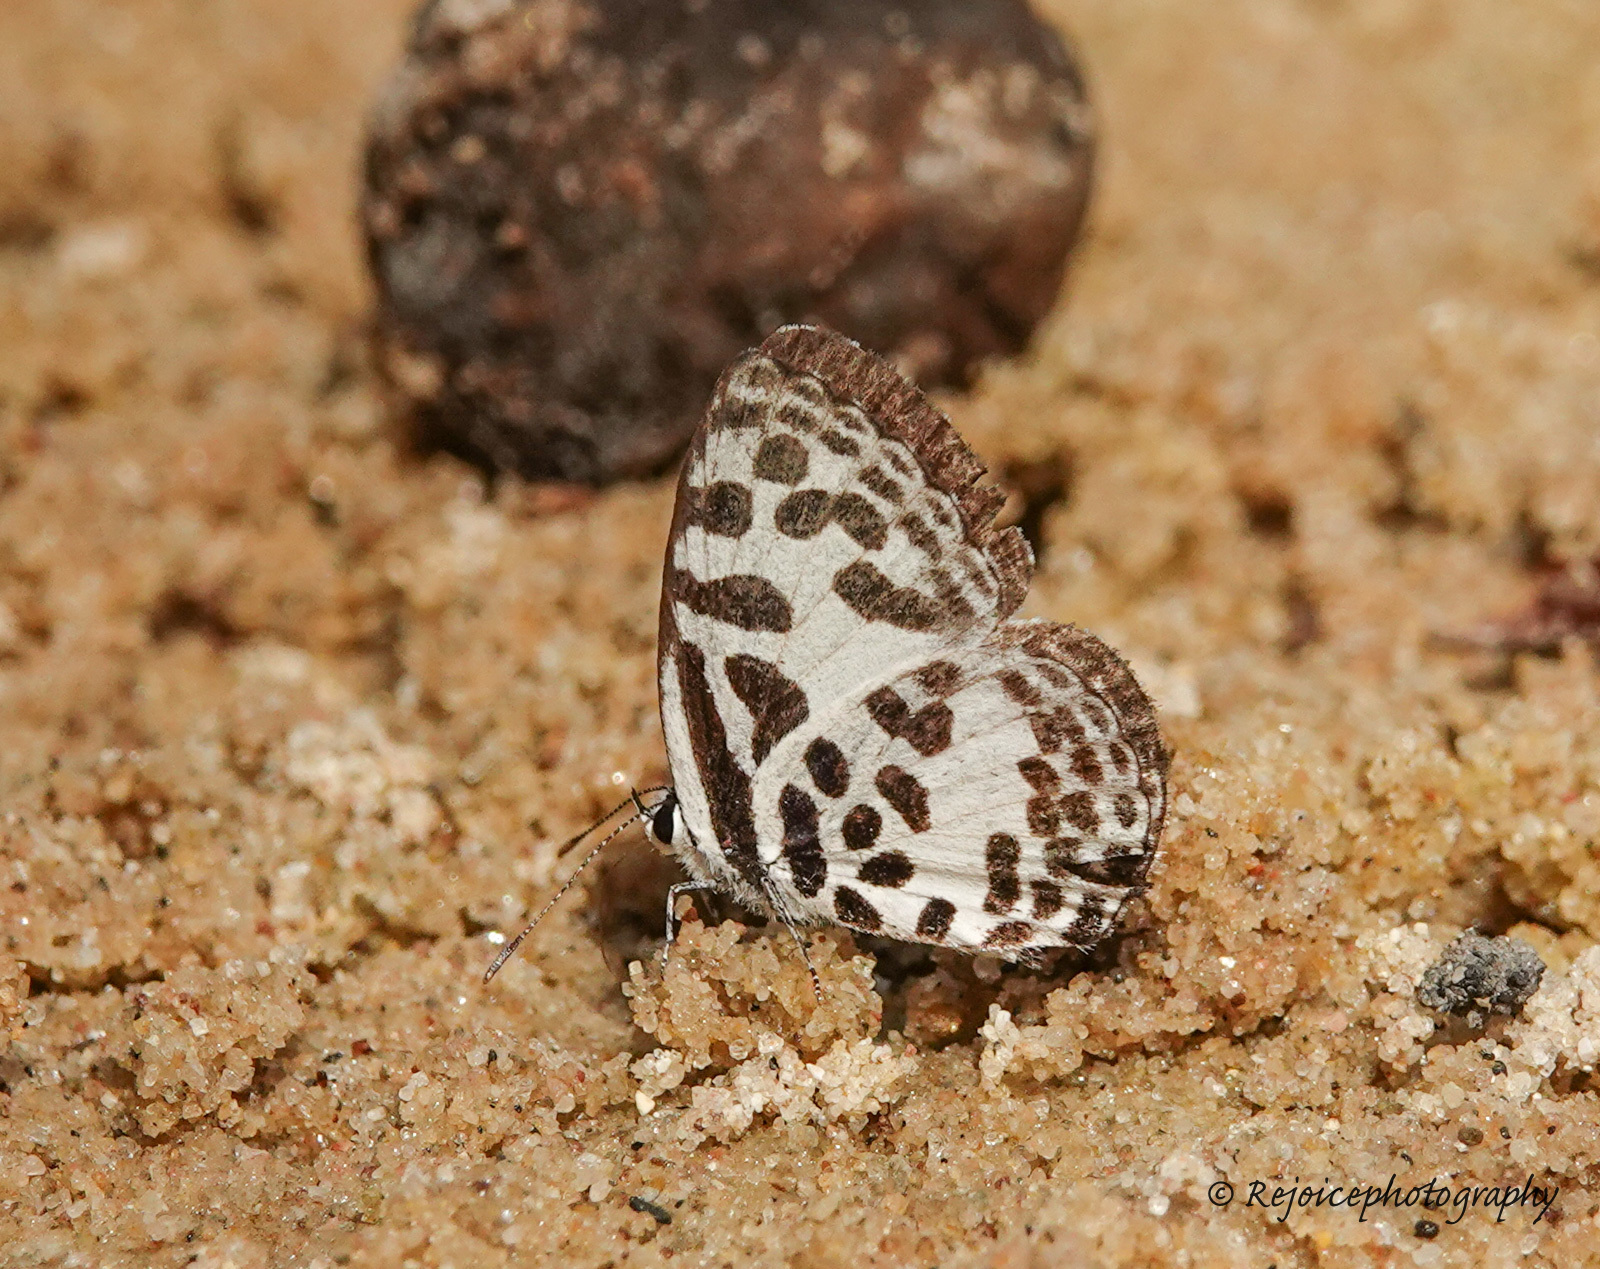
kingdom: Animalia
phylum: Arthropoda
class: Insecta
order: Lepidoptera
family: Lycaenidae
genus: Castalius
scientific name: Castalius rosimon
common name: Common pierrot
